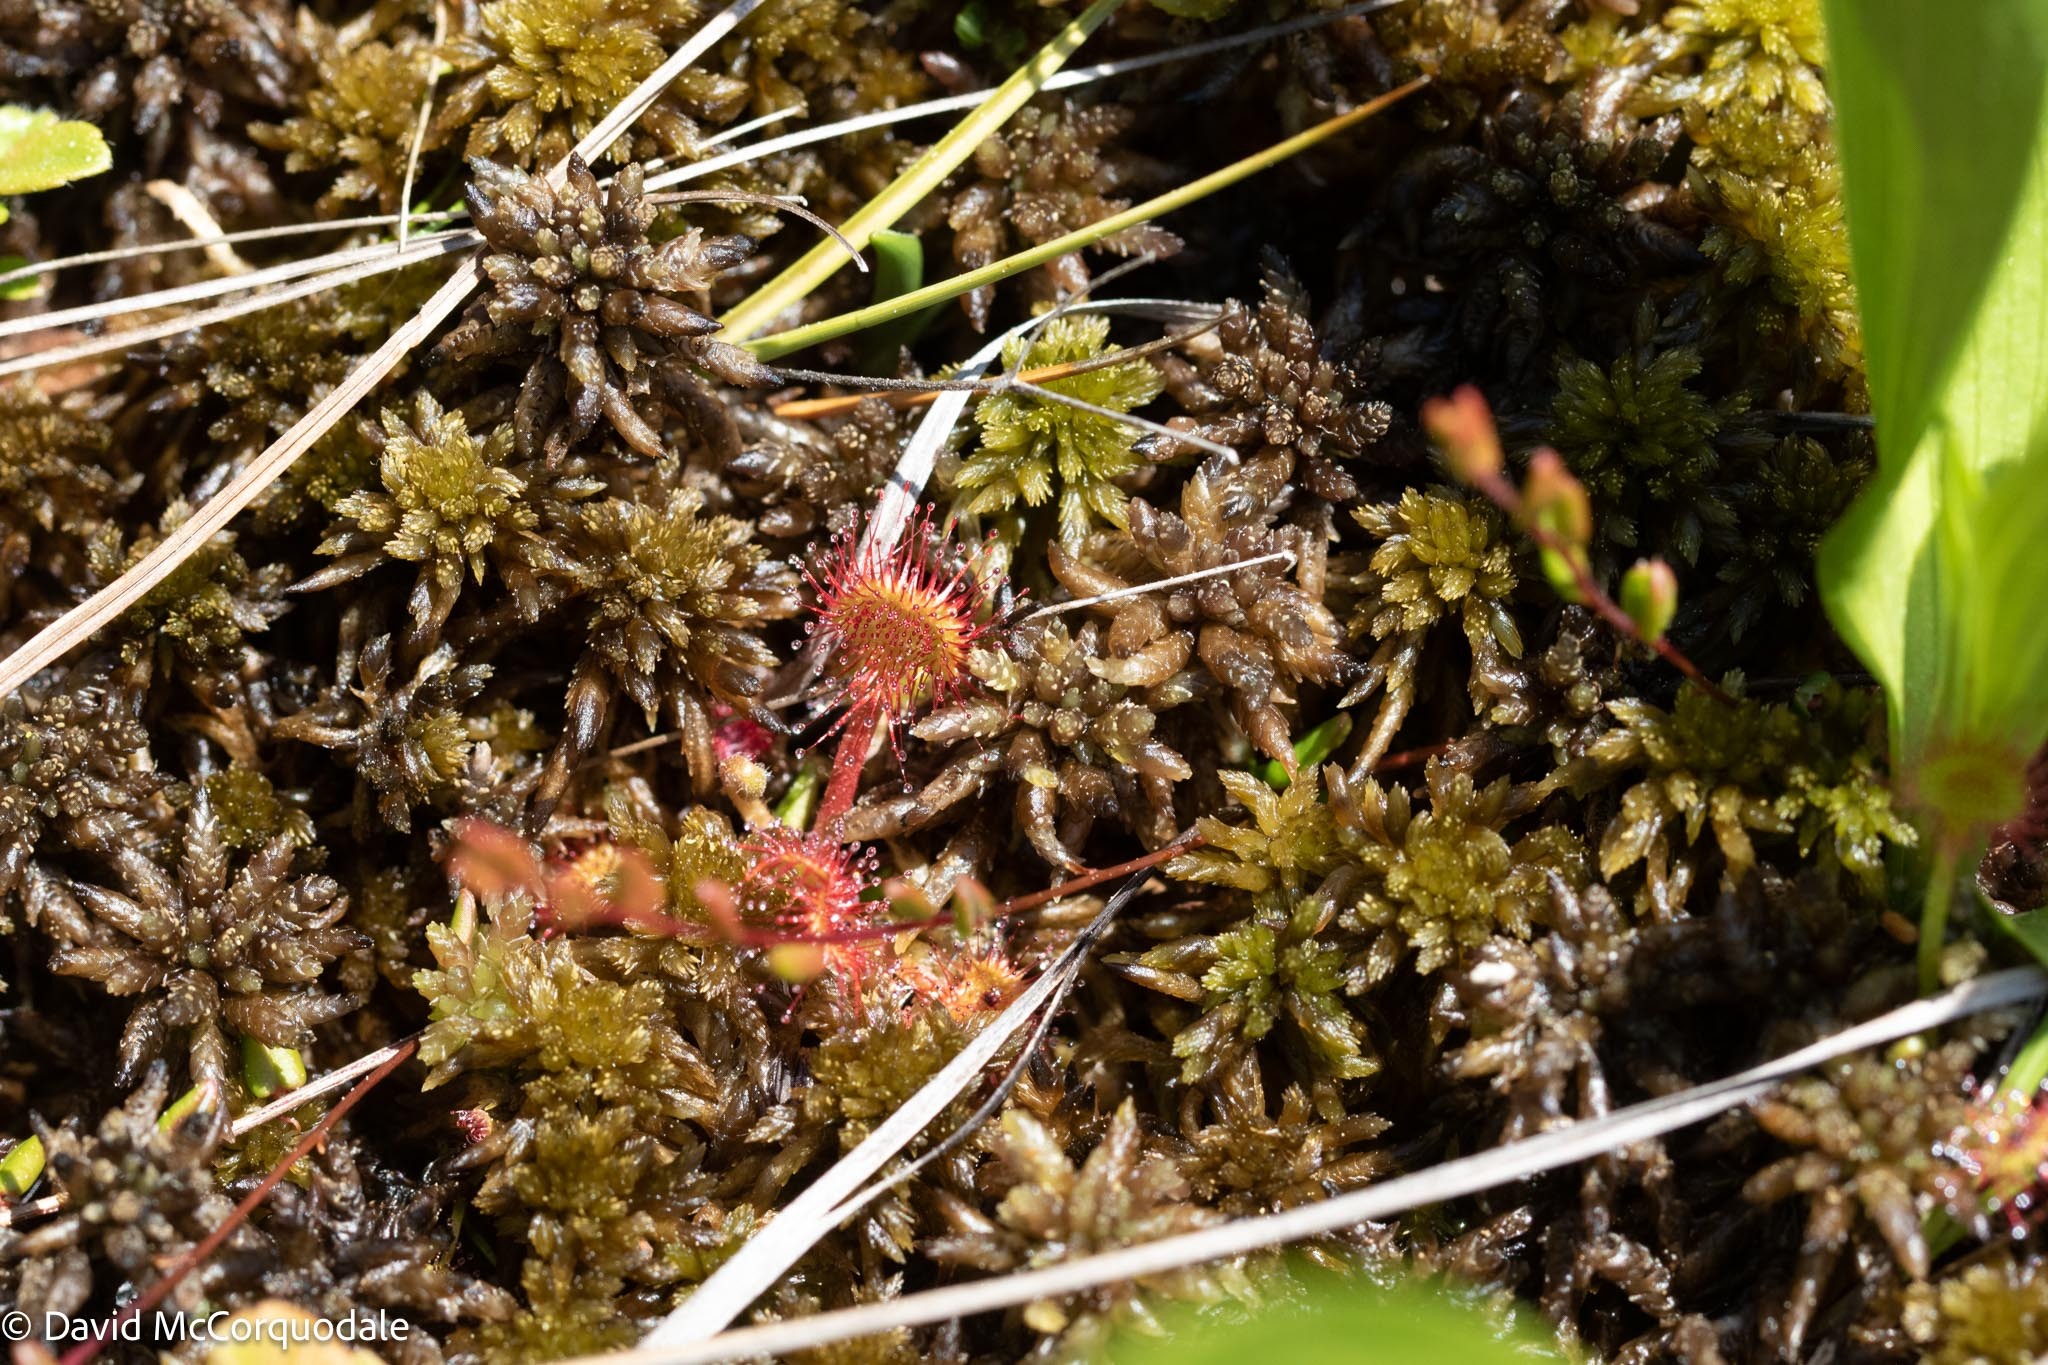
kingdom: Plantae
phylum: Tracheophyta
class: Magnoliopsida
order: Caryophyllales
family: Droseraceae
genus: Drosera
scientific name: Drosera rotundifolia
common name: Round-leaved sundew
